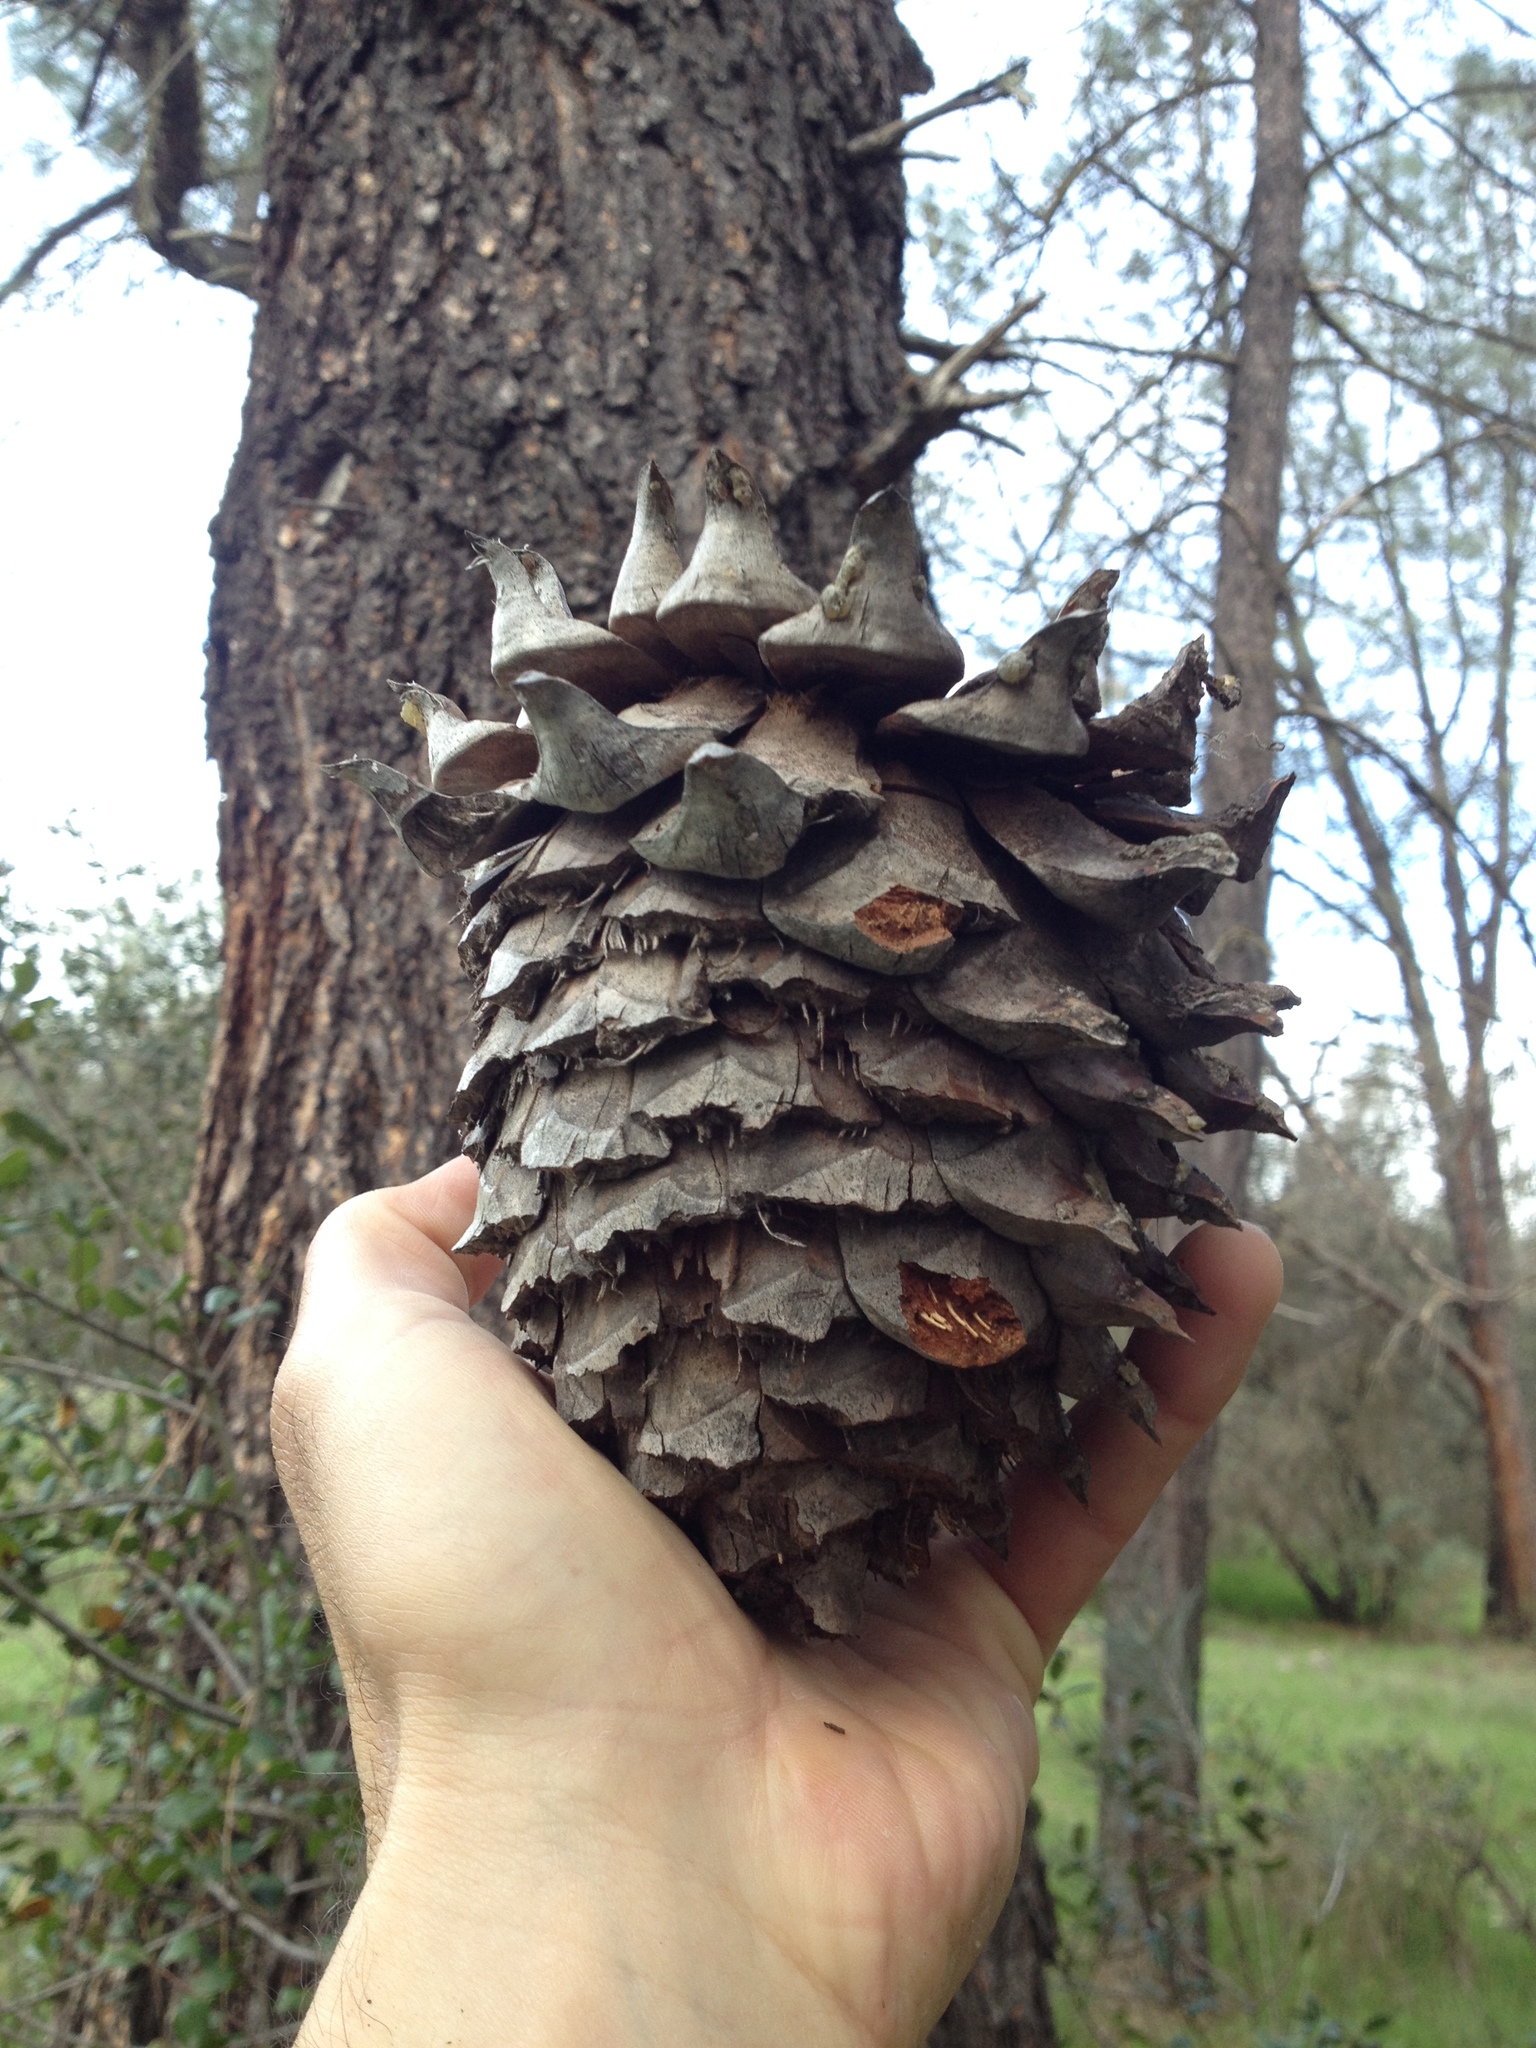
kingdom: Plantae
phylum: Tracheophyta
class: Pinopsida
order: Pinales
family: Pinaceae
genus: Pinus
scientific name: Pinus sabiniana
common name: Bull pine
